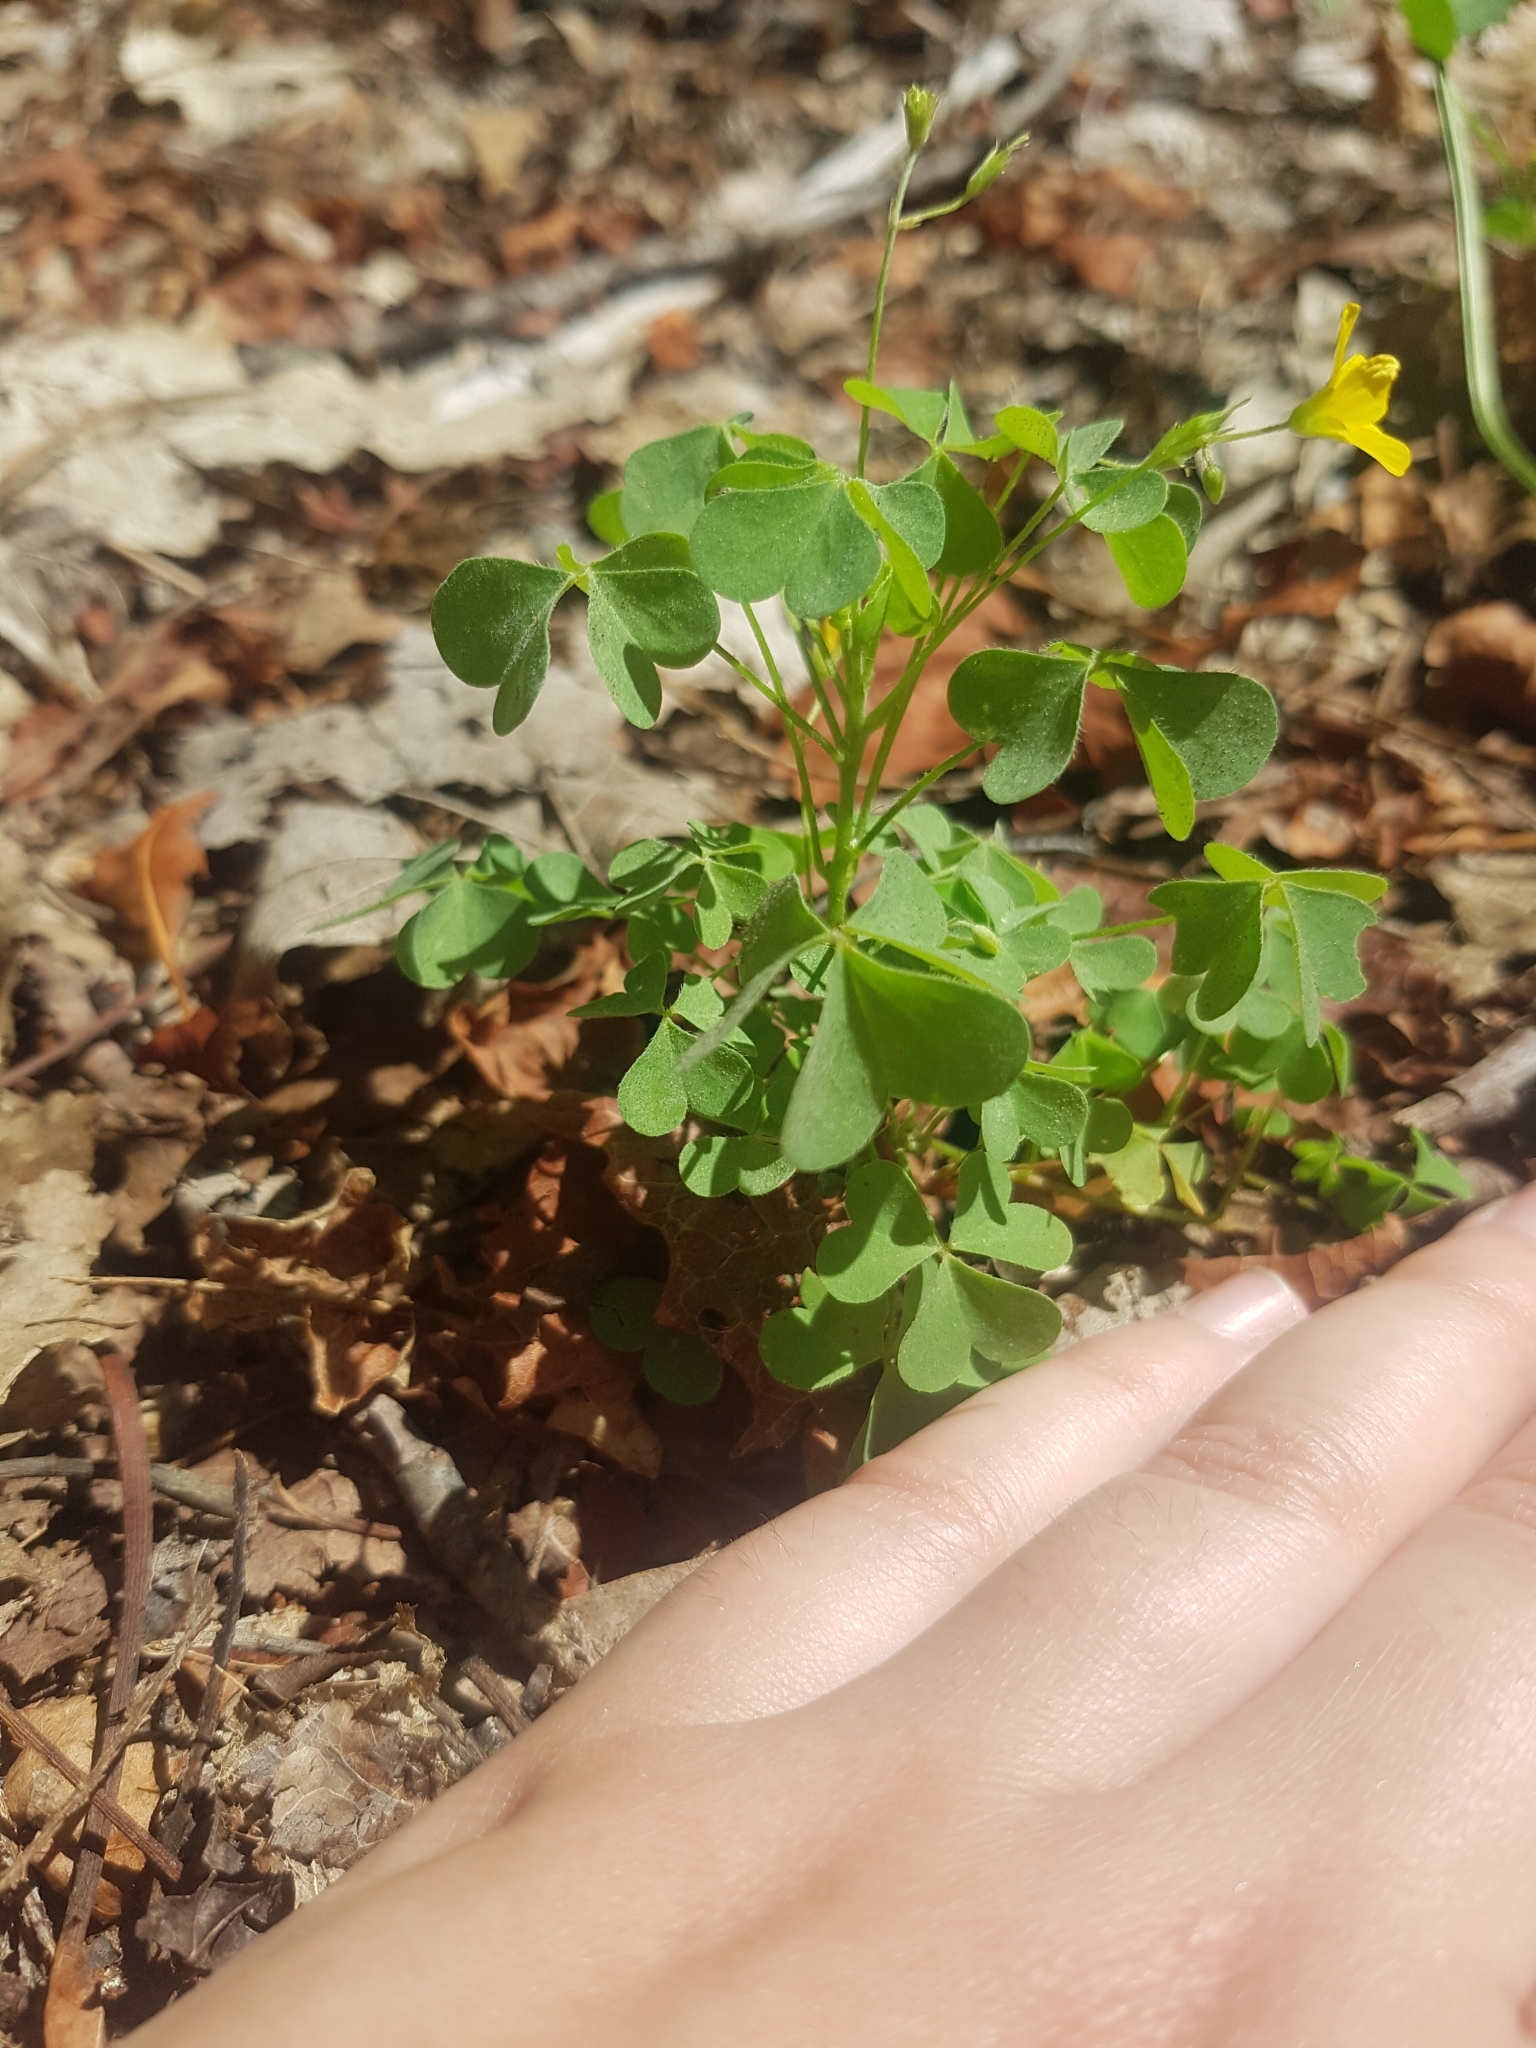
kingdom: Plantae
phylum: Tracheophyta
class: Magnoliopsida
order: Oxalidales
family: Oxalidaceae
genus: Oxalis
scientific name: Oxalis stricta
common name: Upright yellow-sorrel
